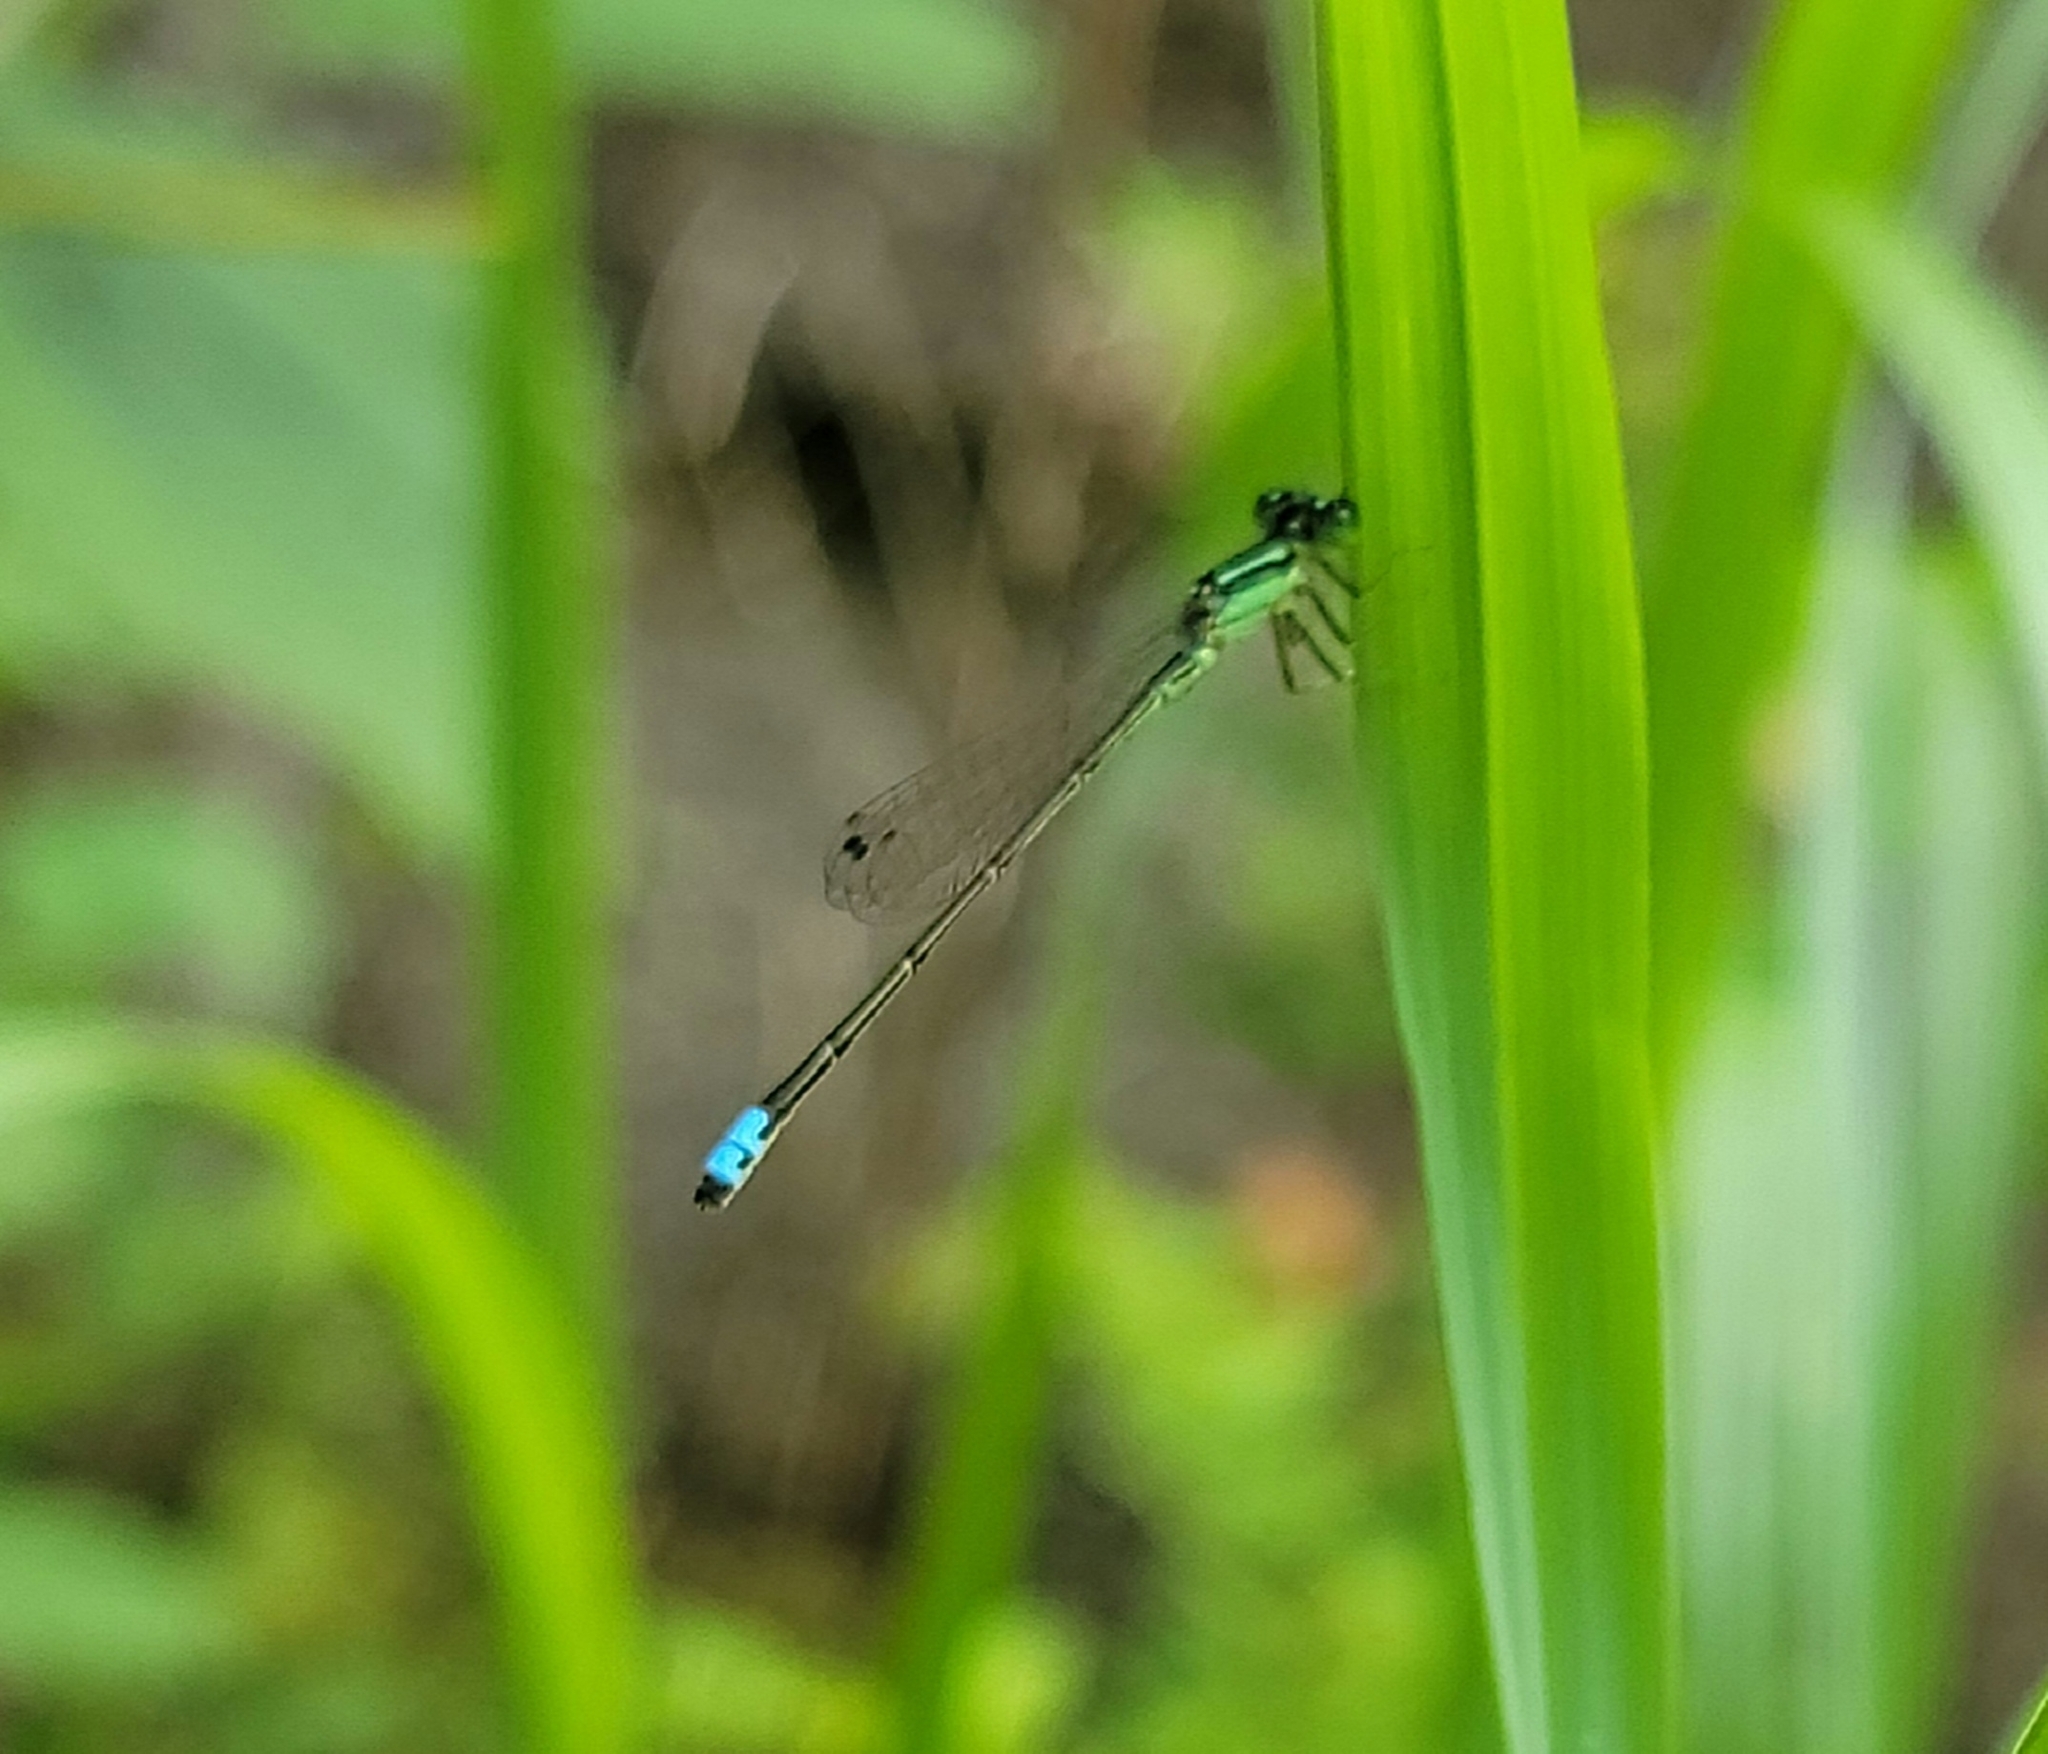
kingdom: Animalia
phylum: Arthropoda
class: Insecta
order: Odonata
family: Coenagrionidae
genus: Ischnura
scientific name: Ischnura verticalis
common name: Eastern forktail
